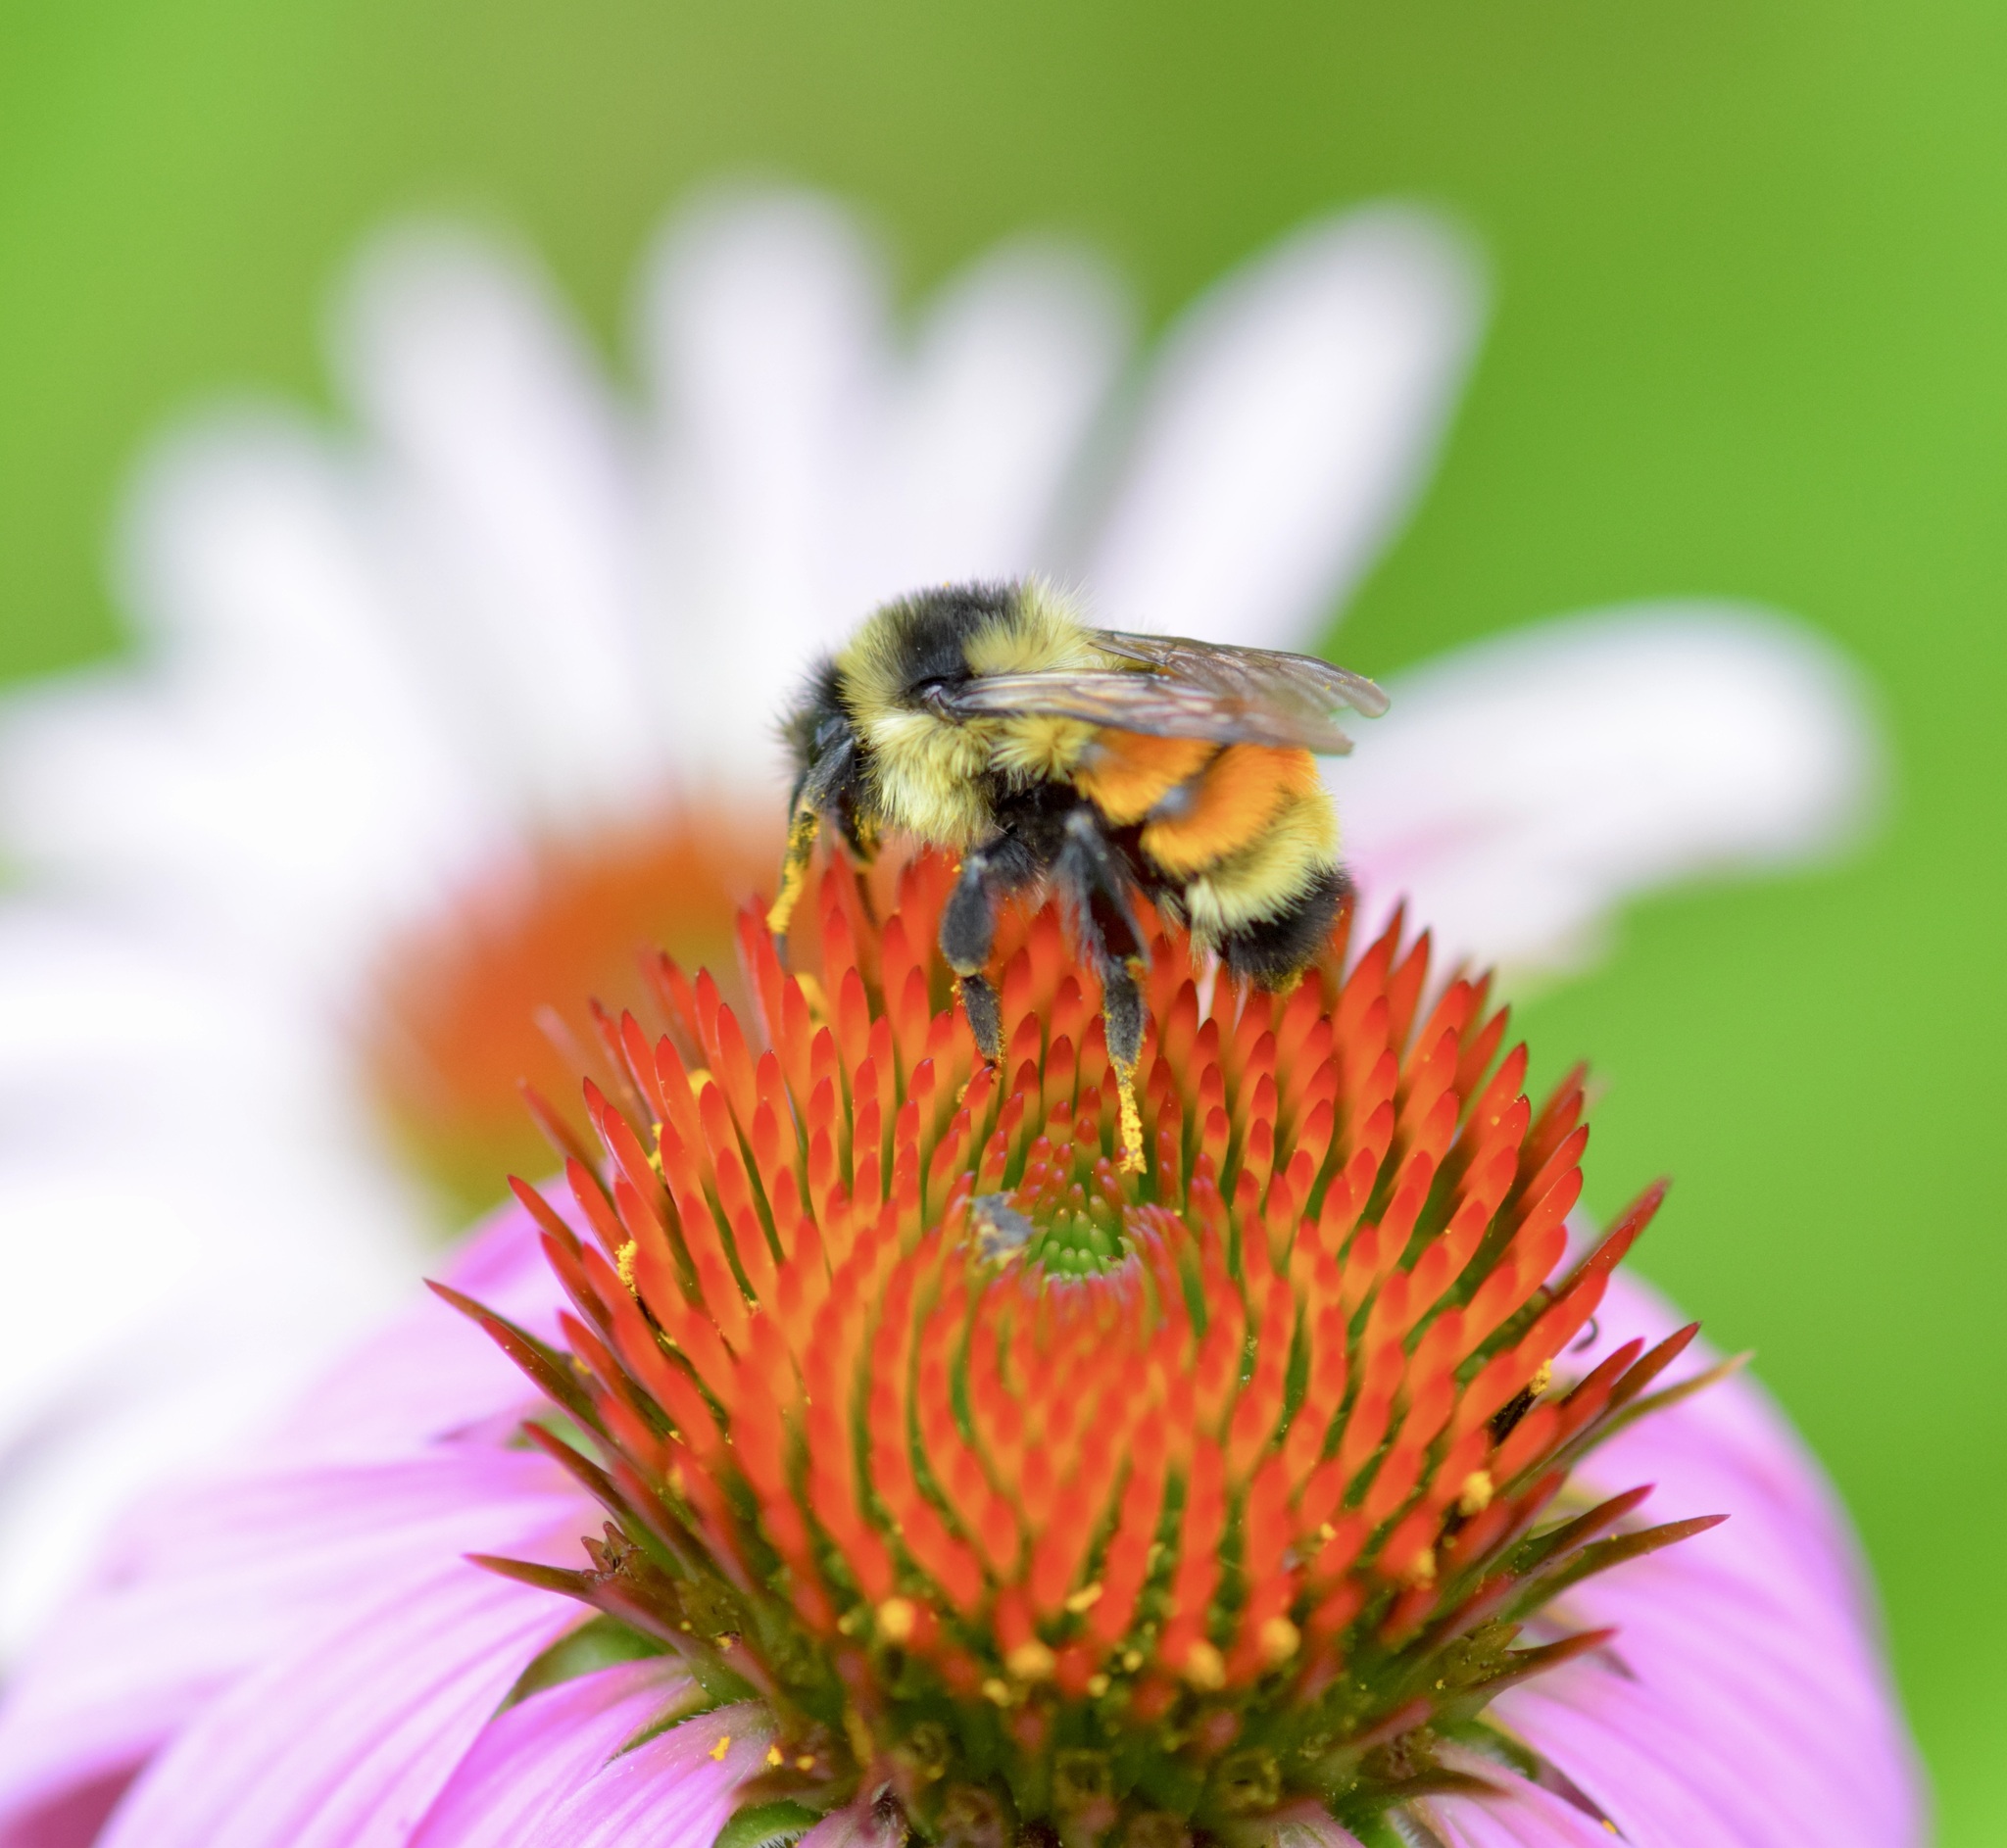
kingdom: Animalia
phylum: Arthropoda
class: Insecta
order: Hymenoptera
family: Apidae
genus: Bombus
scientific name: Bombus ternarius
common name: Tri-colored bumble bee
